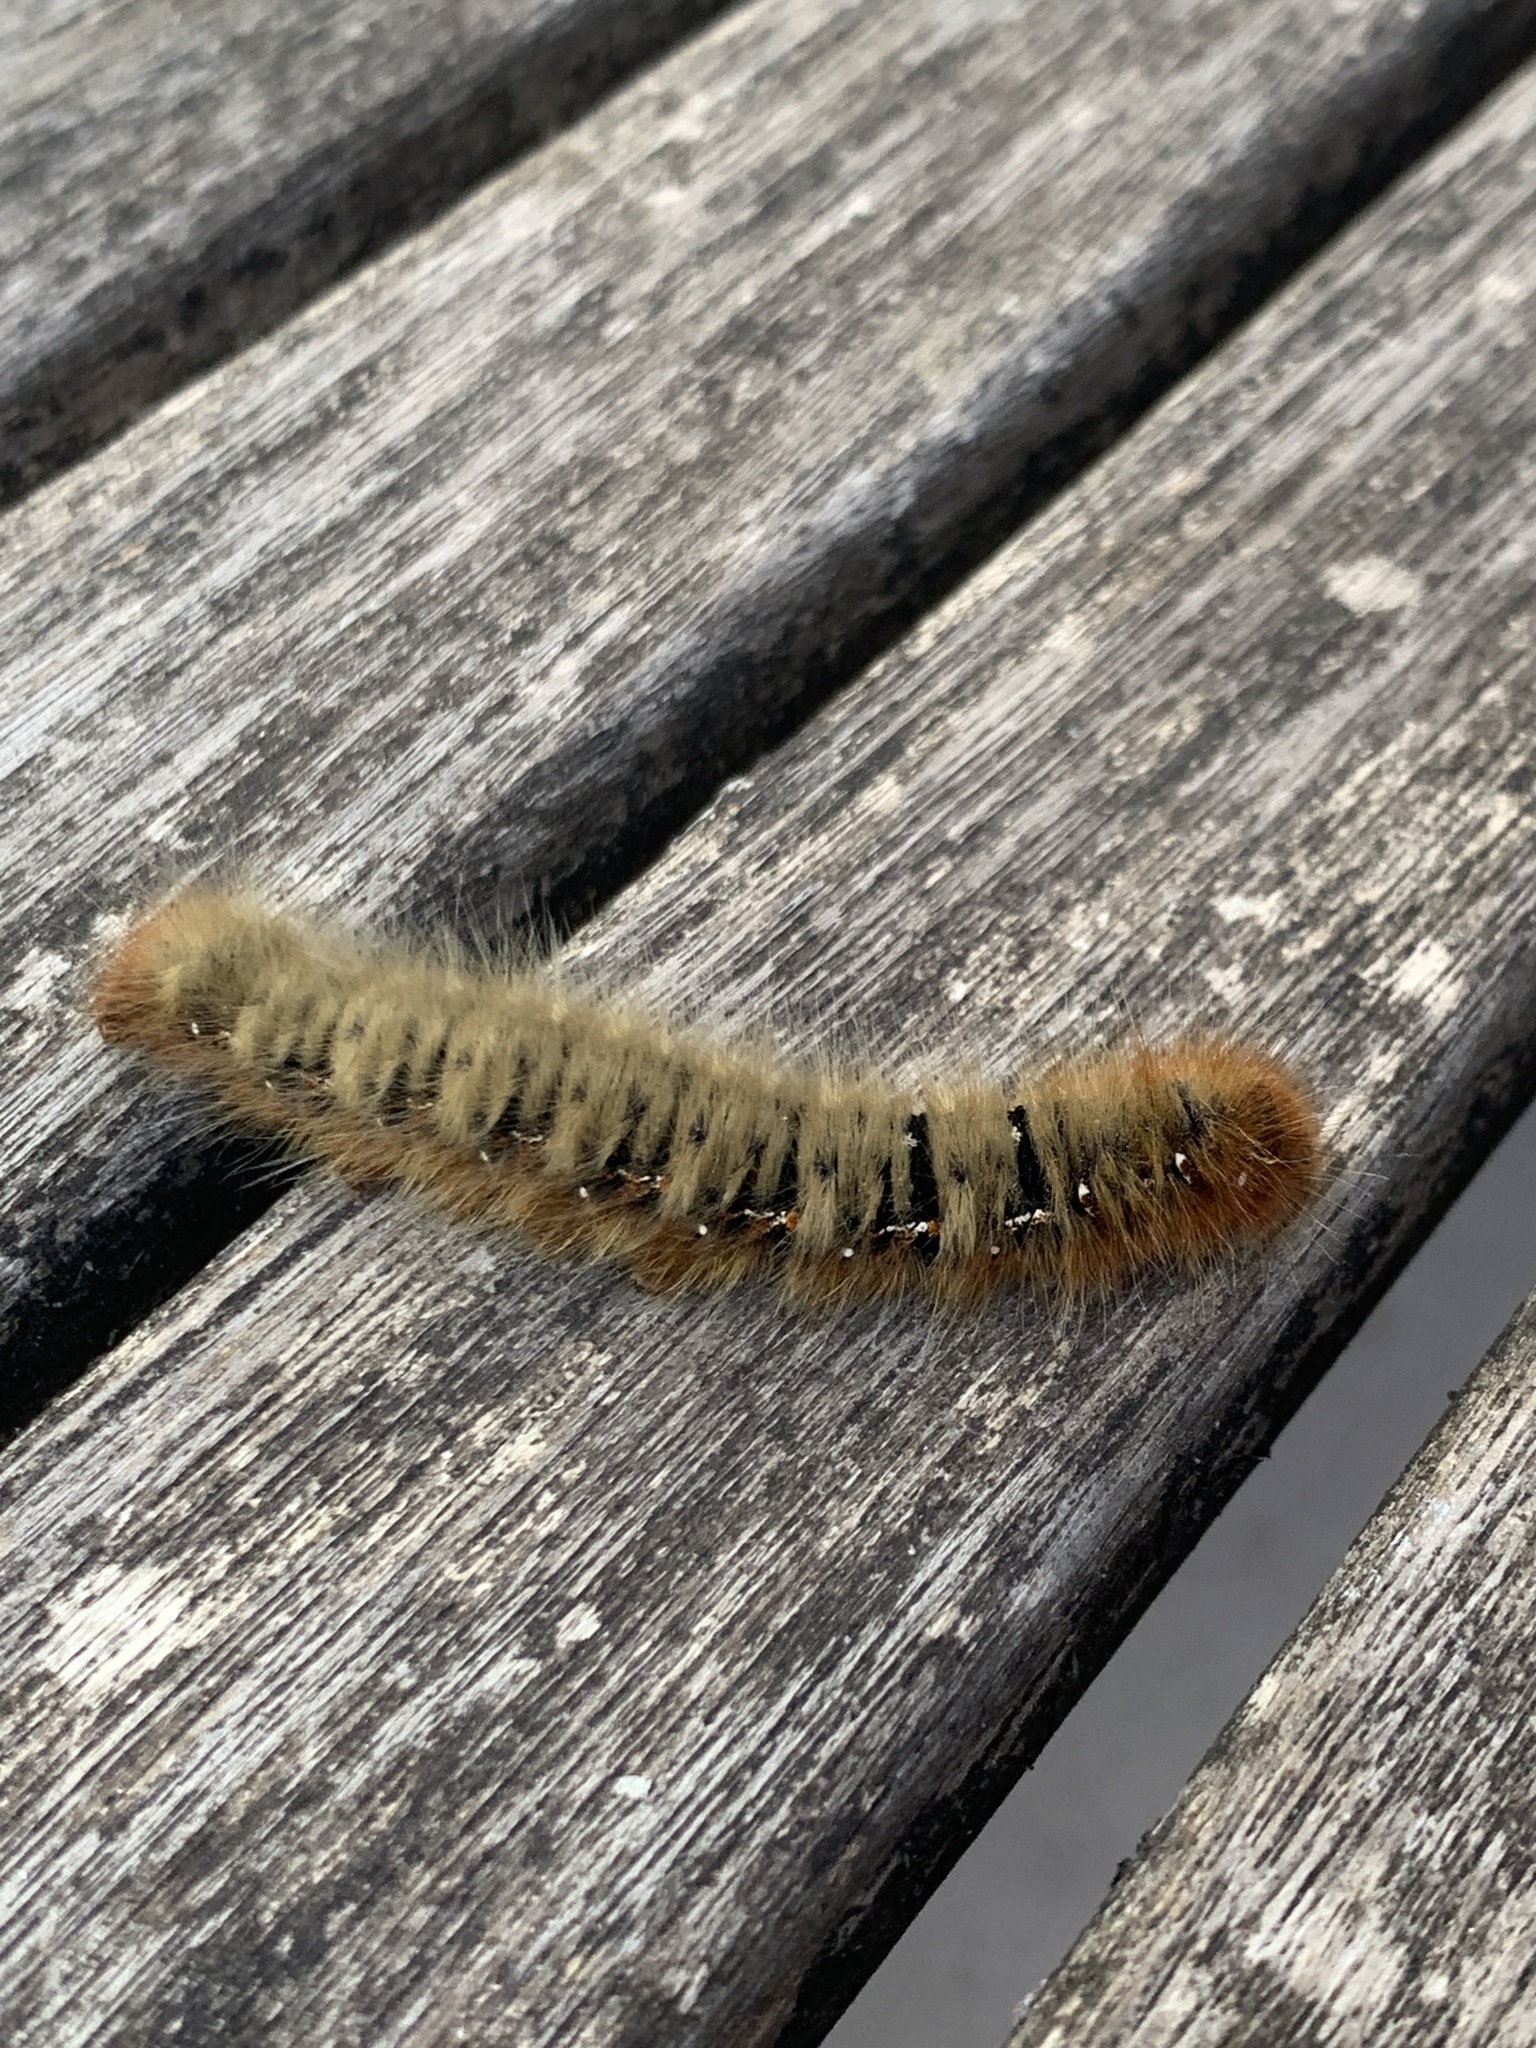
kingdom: Animalia
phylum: Arthropoda
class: Insecta
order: Lepidoptera
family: Lasiocampidae
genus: Lasiocampa
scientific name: Lasiocampa quercus
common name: Oak eggar
